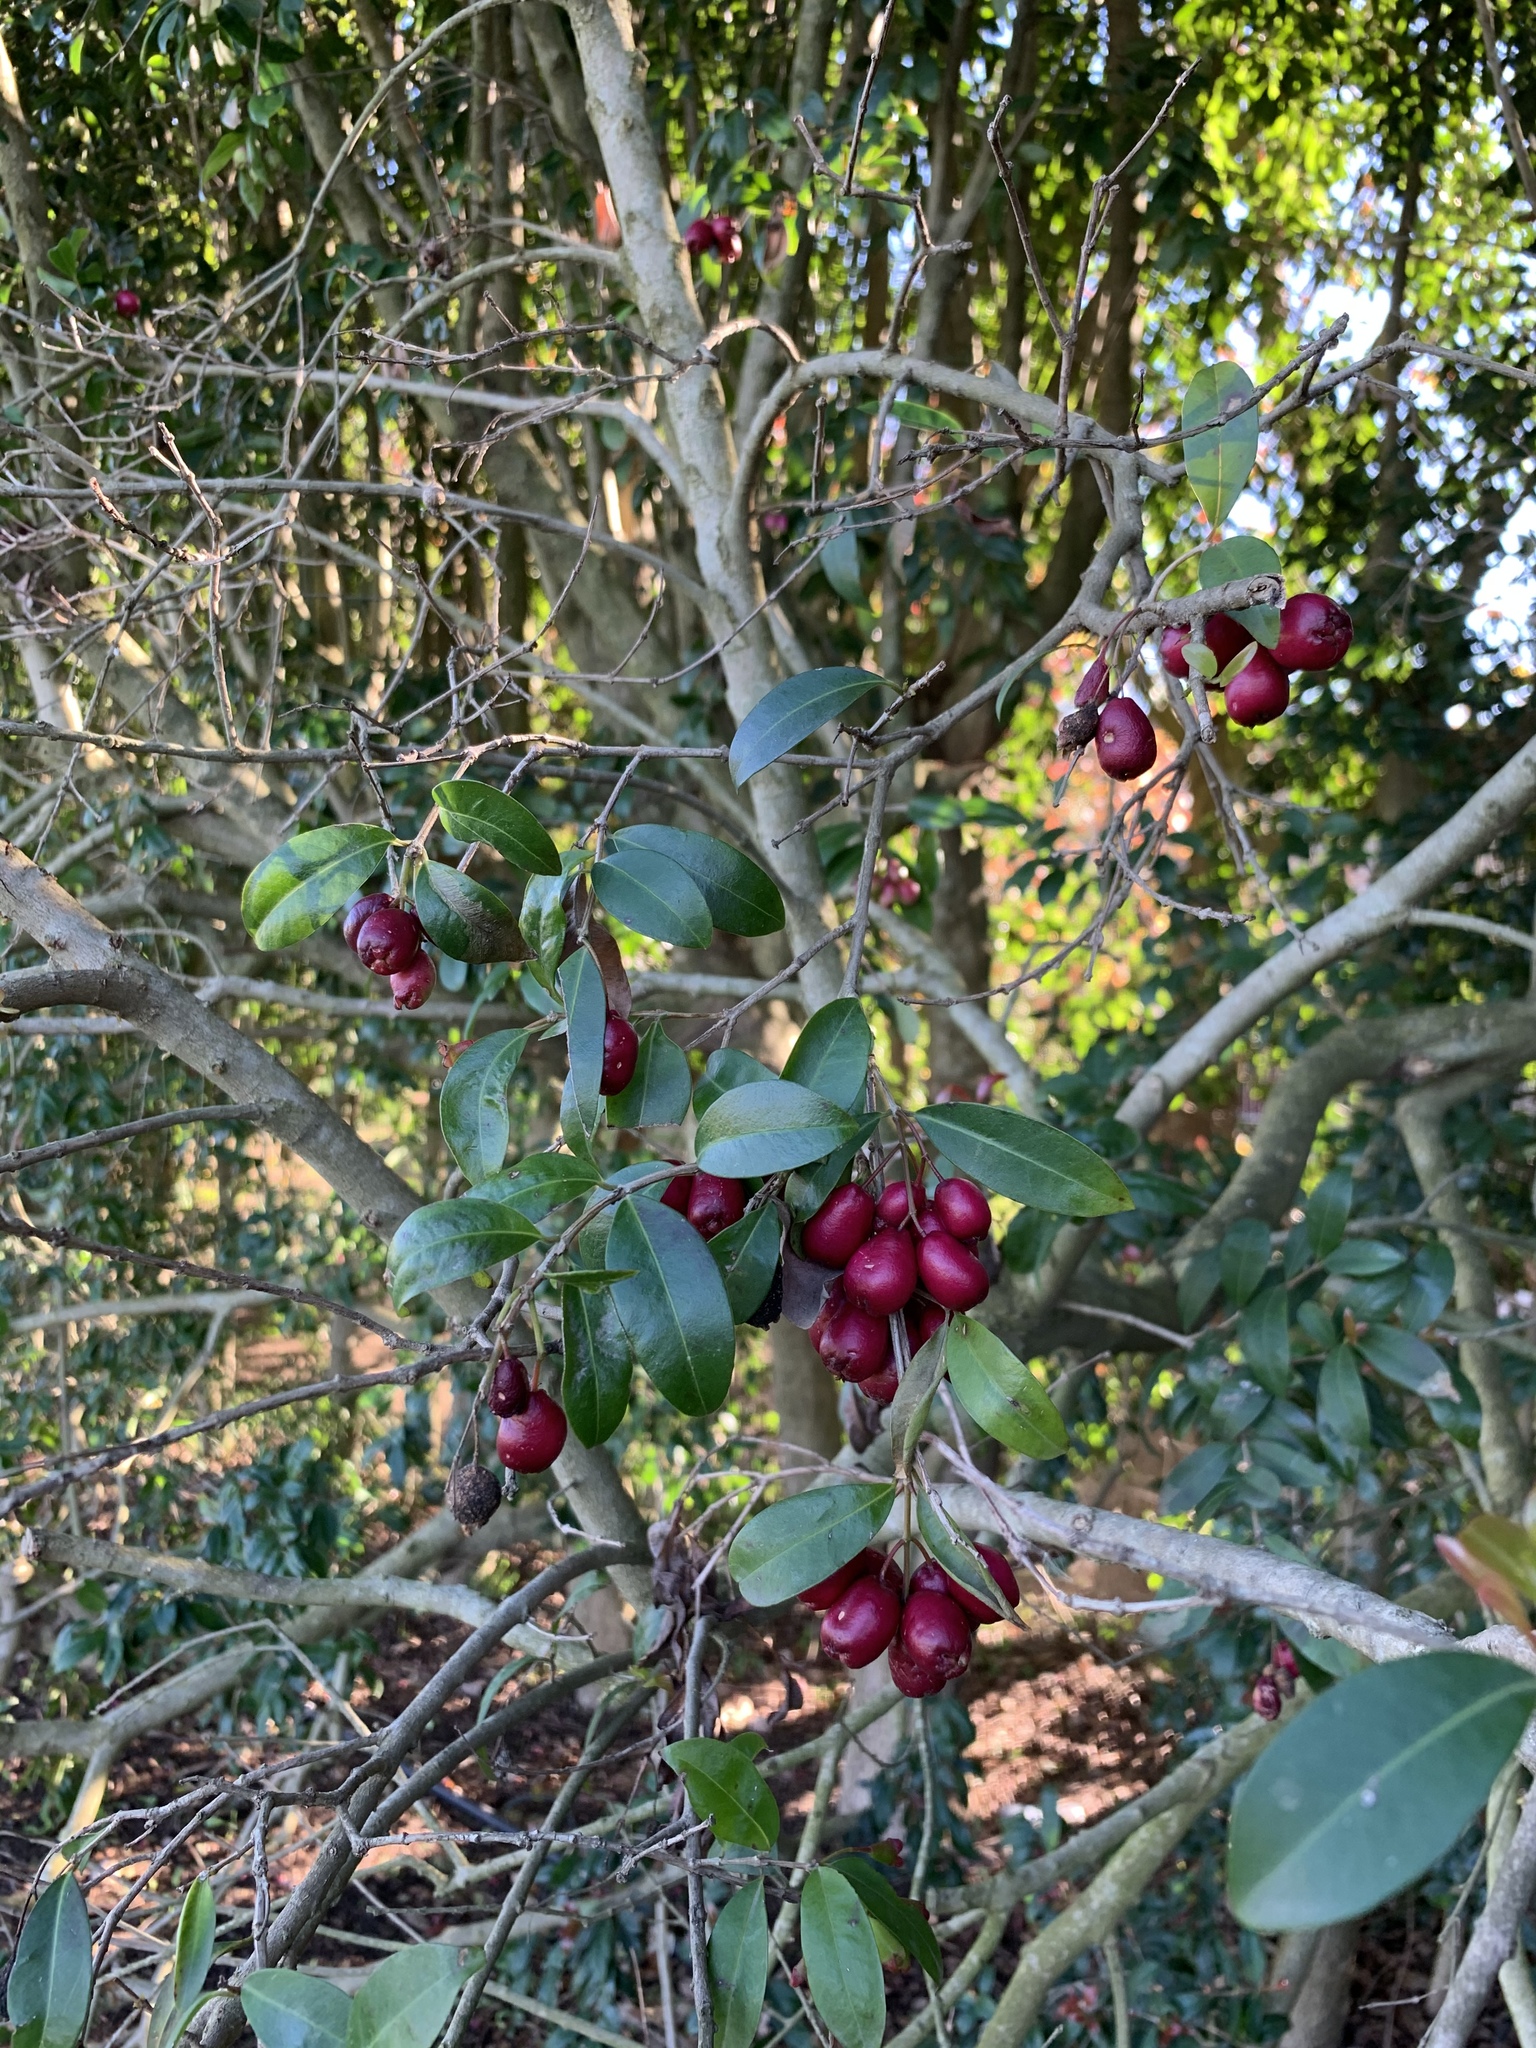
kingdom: Plantae
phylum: Tracheophyta
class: Magnoliopsida
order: Myrtales
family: Myrtaceae
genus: Syzygium
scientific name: Syzygium australe
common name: Australian brush-cherry
